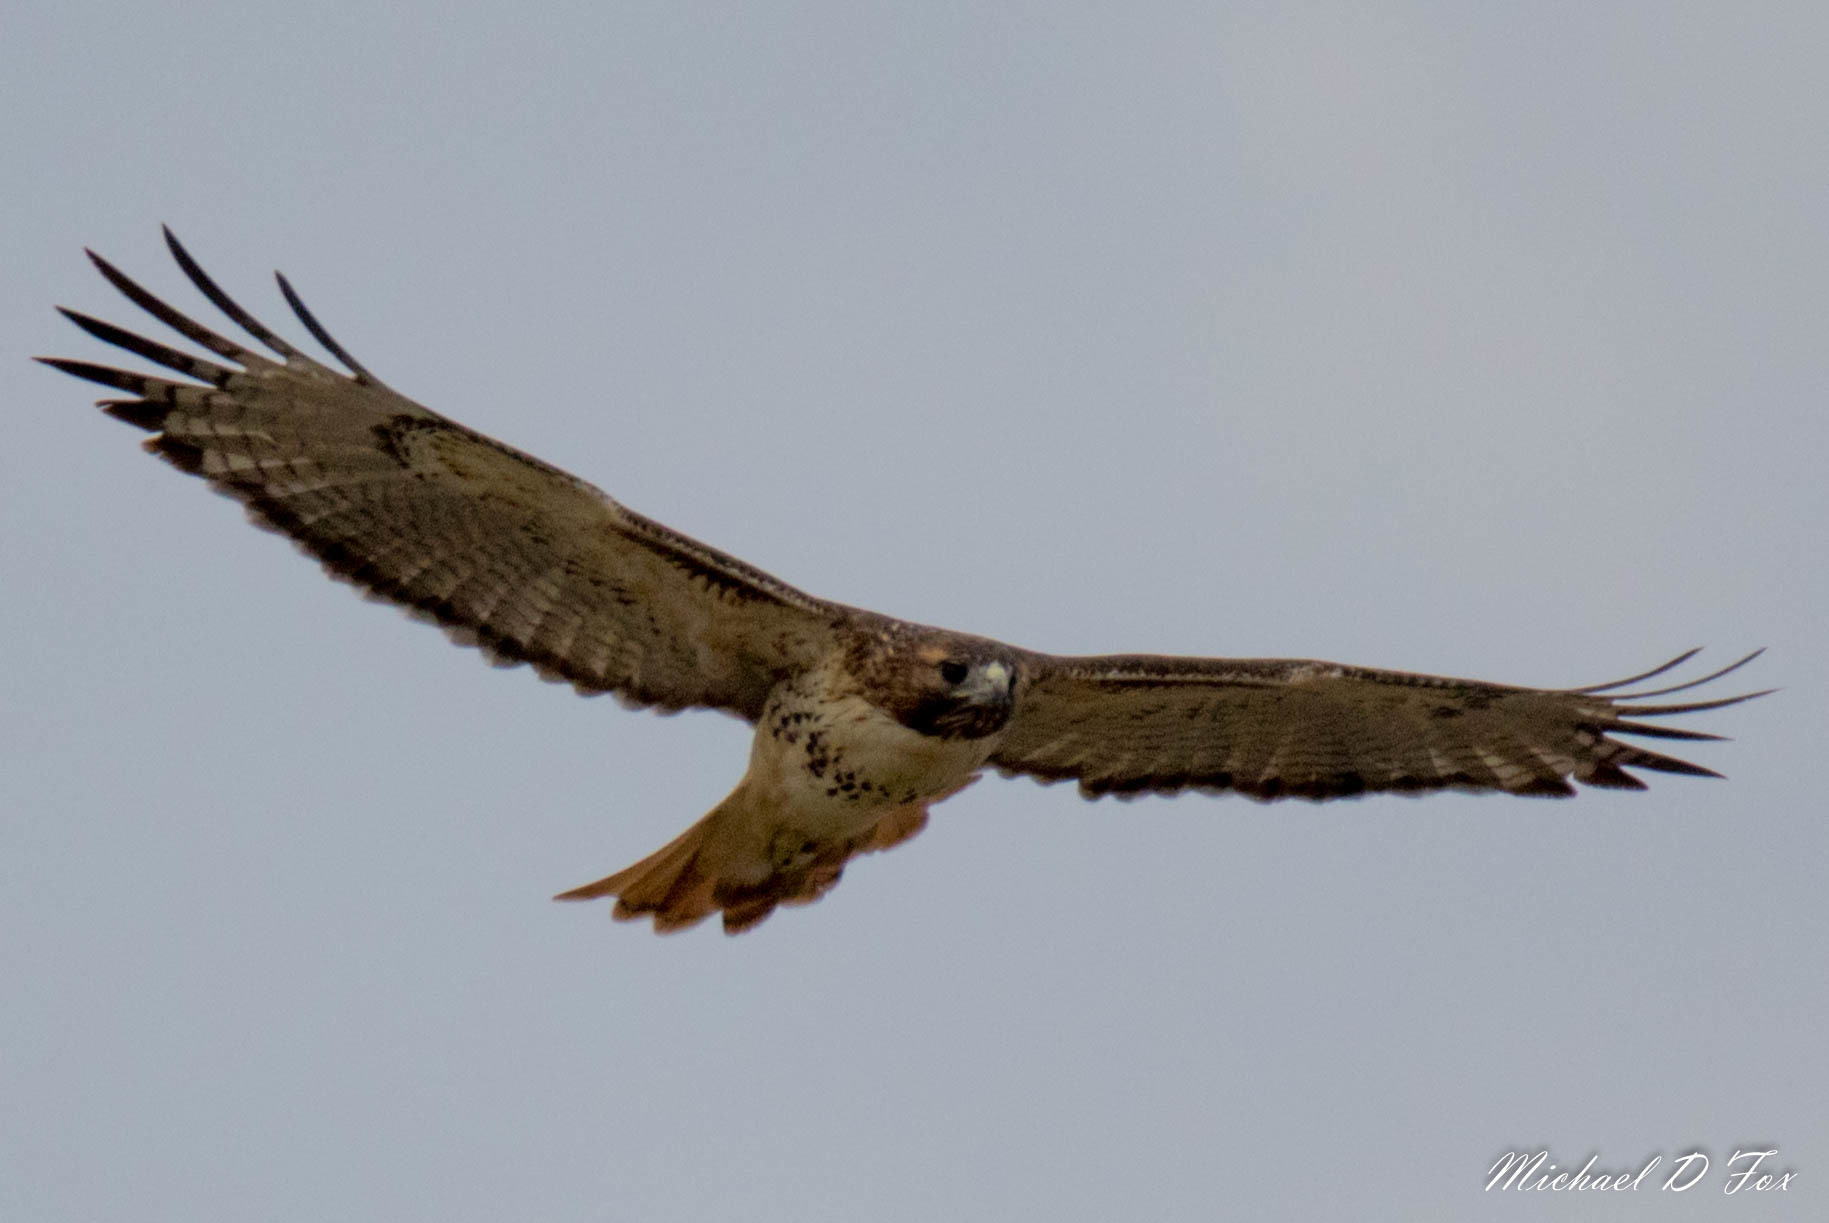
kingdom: Animalia
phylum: Chordata
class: Aves
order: Accipitriformes
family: Accipitridae
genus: Buteo
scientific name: Buteo jamaicensis
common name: Red-tailed hawk
